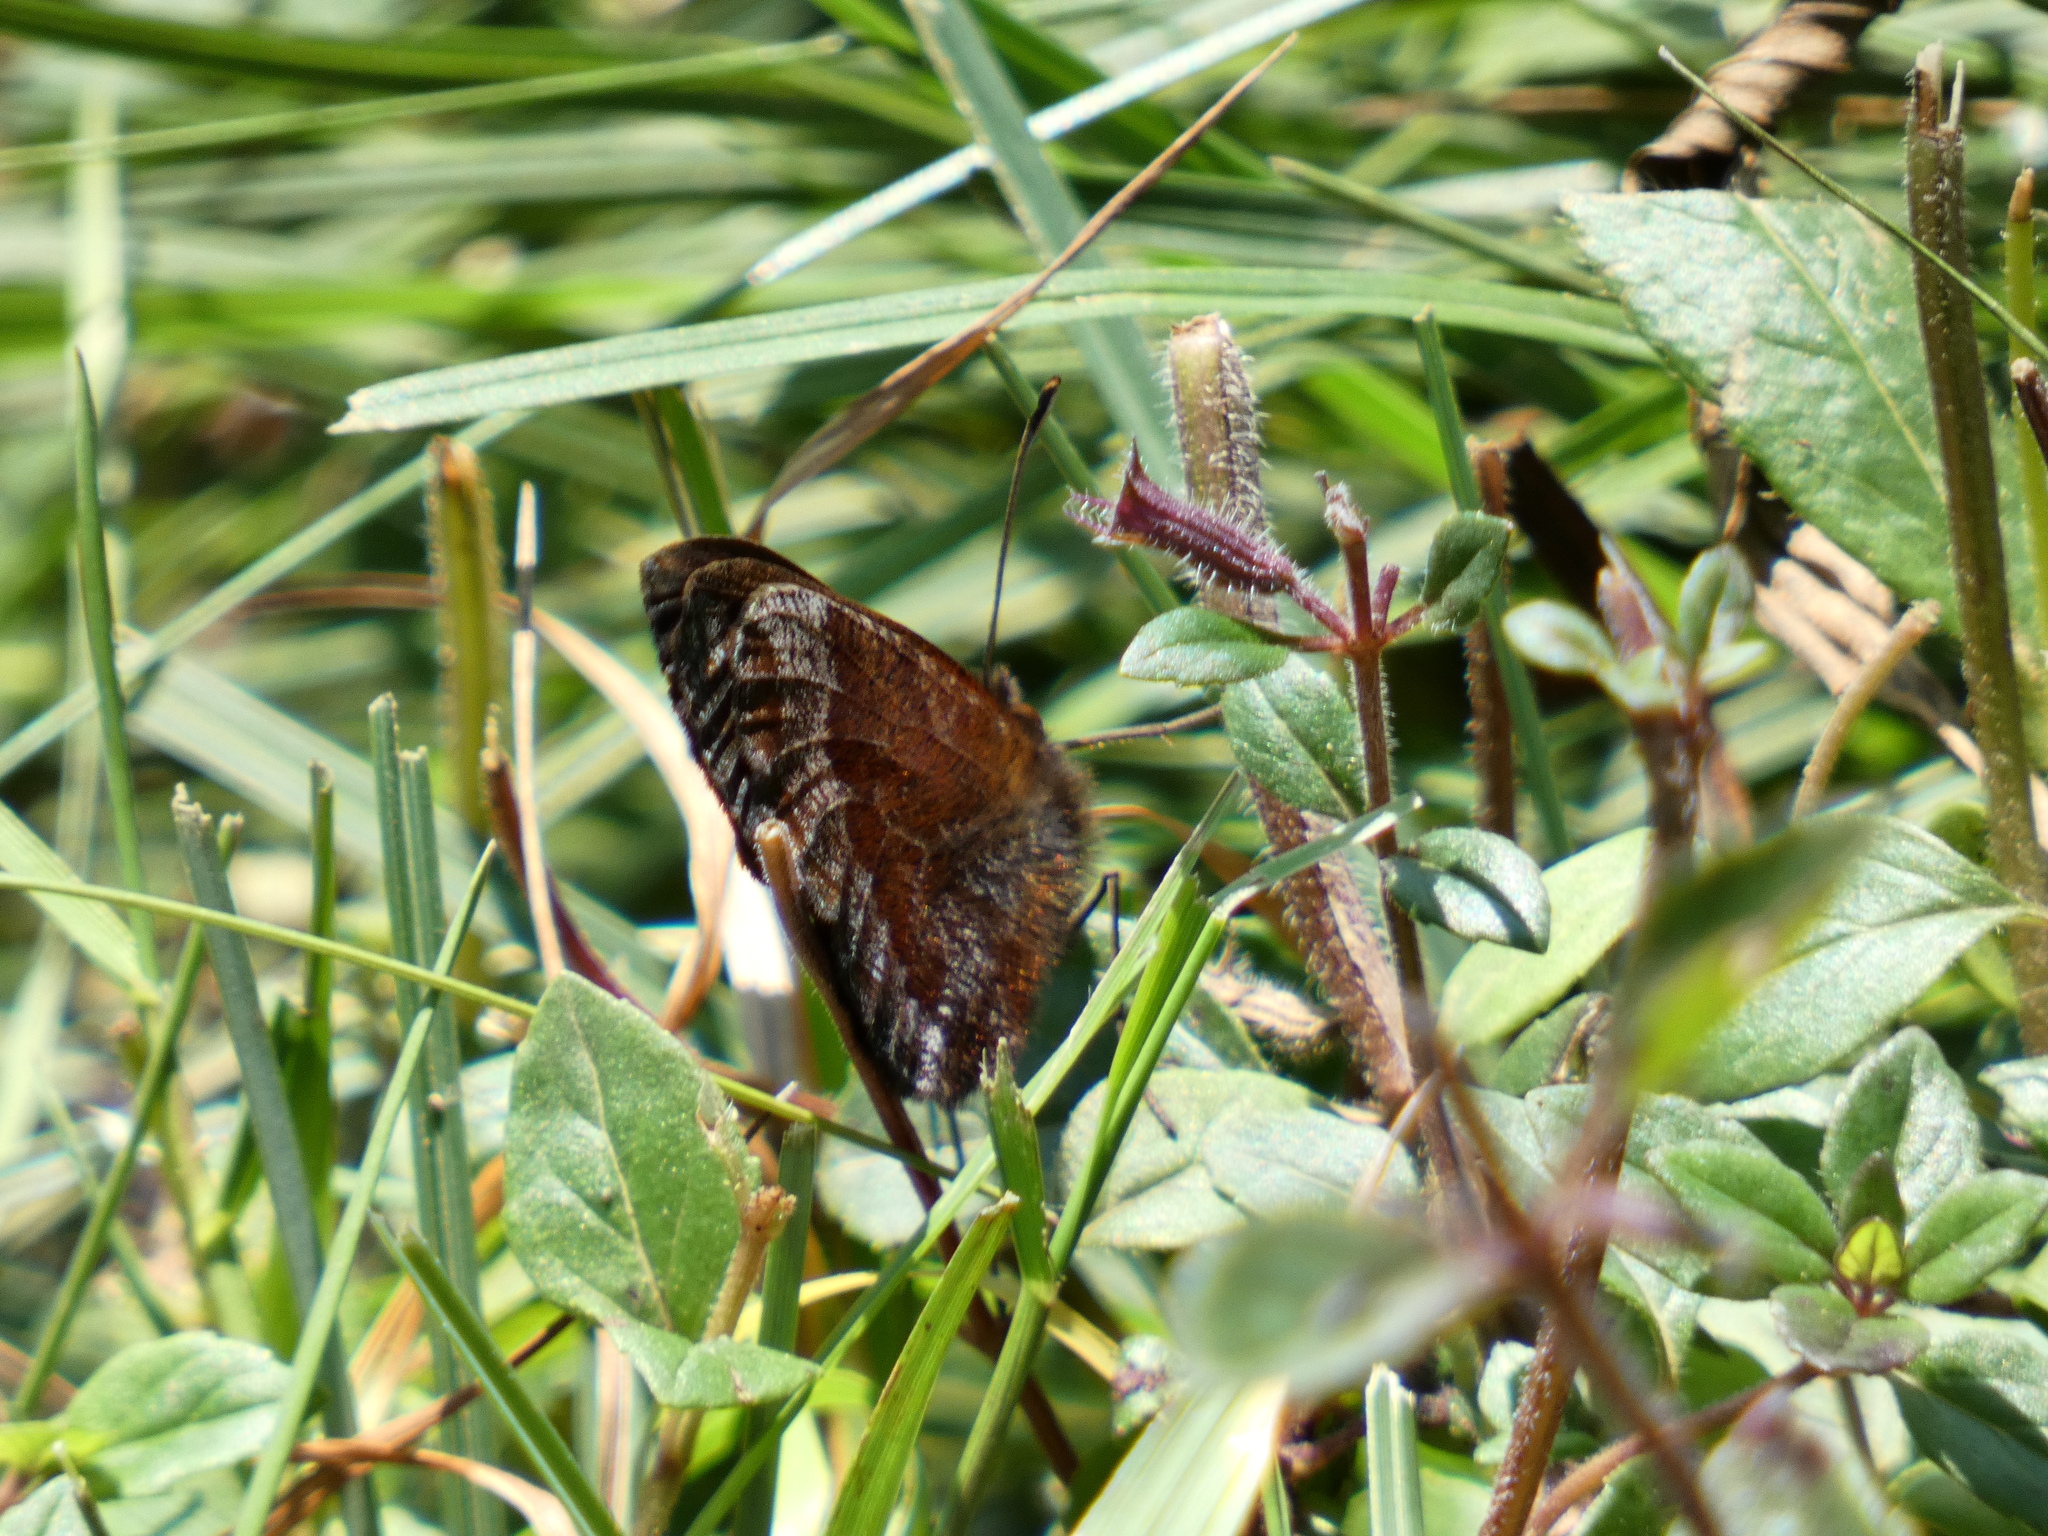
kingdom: Animalia
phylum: Arthropoda
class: Insecta
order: Lepidoptera
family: Nymphalidae
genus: Erebia
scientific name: Erebia pronoe
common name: Water ringlet
